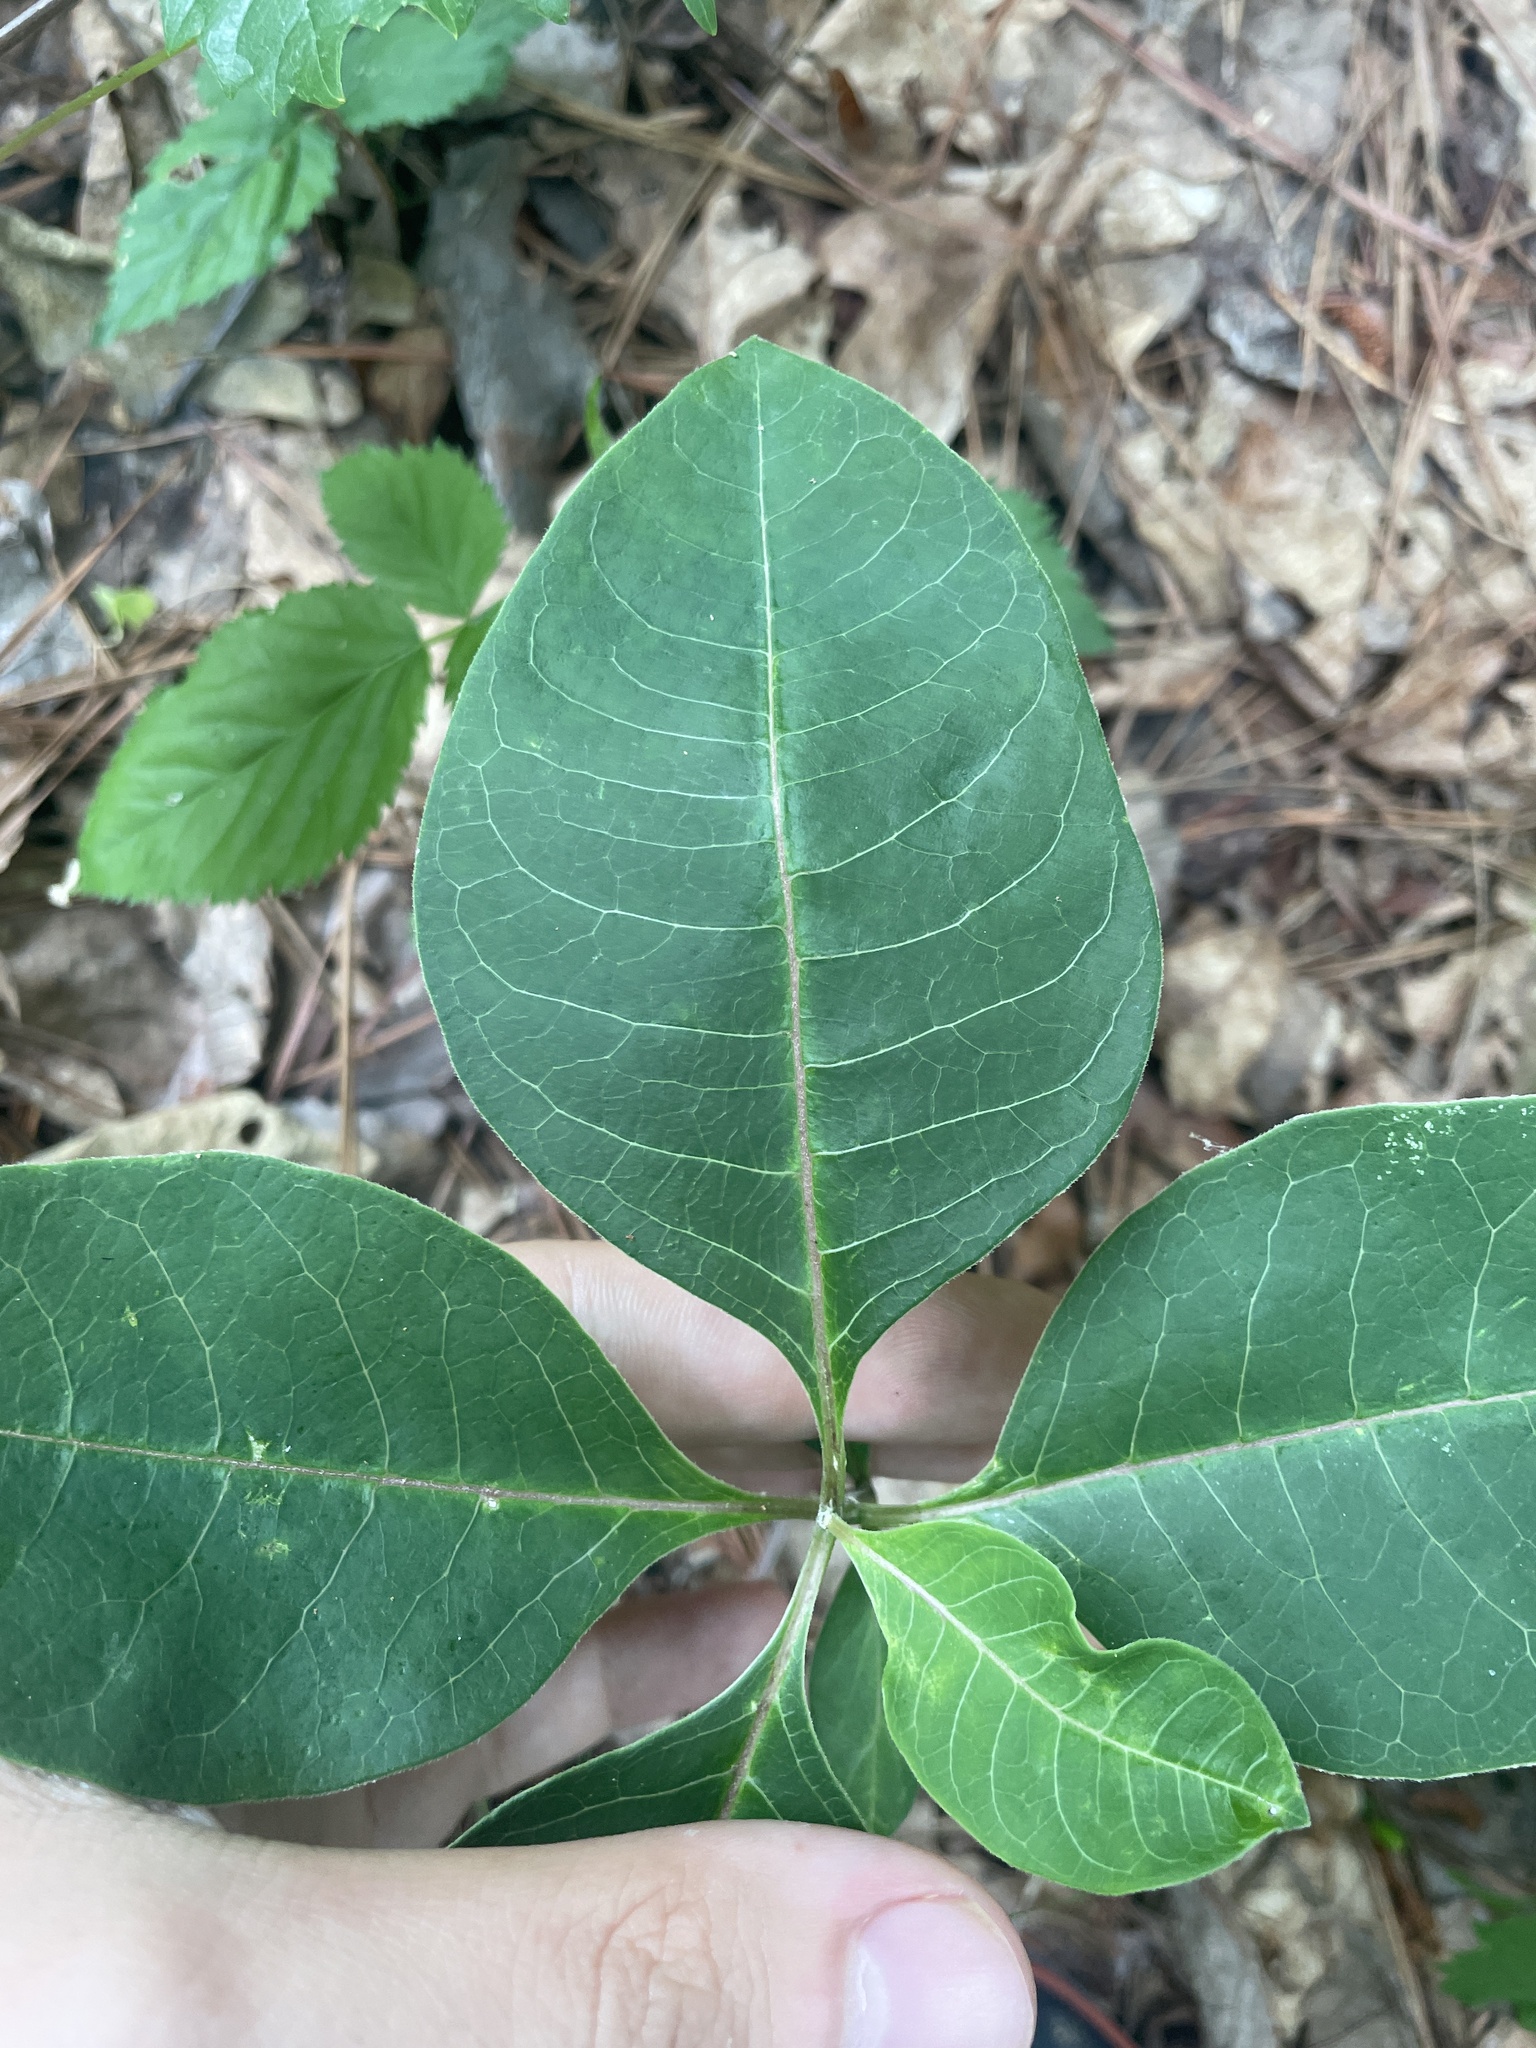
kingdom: Plantae
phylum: Tracheophyta
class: Magnoliopsida
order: Gentianales
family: Apocynaceae
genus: Asclepias
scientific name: Asclepias variegata
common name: Variegated milkweed
